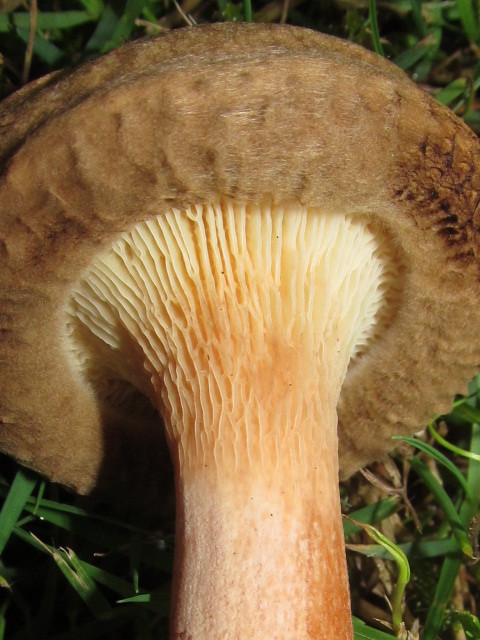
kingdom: Fungi
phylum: Basidiomycota
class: Agaricomycetes
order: Boletales
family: Paxillaceae
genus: Paxillus
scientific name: Paxillus involutus
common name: Brown roll rim
